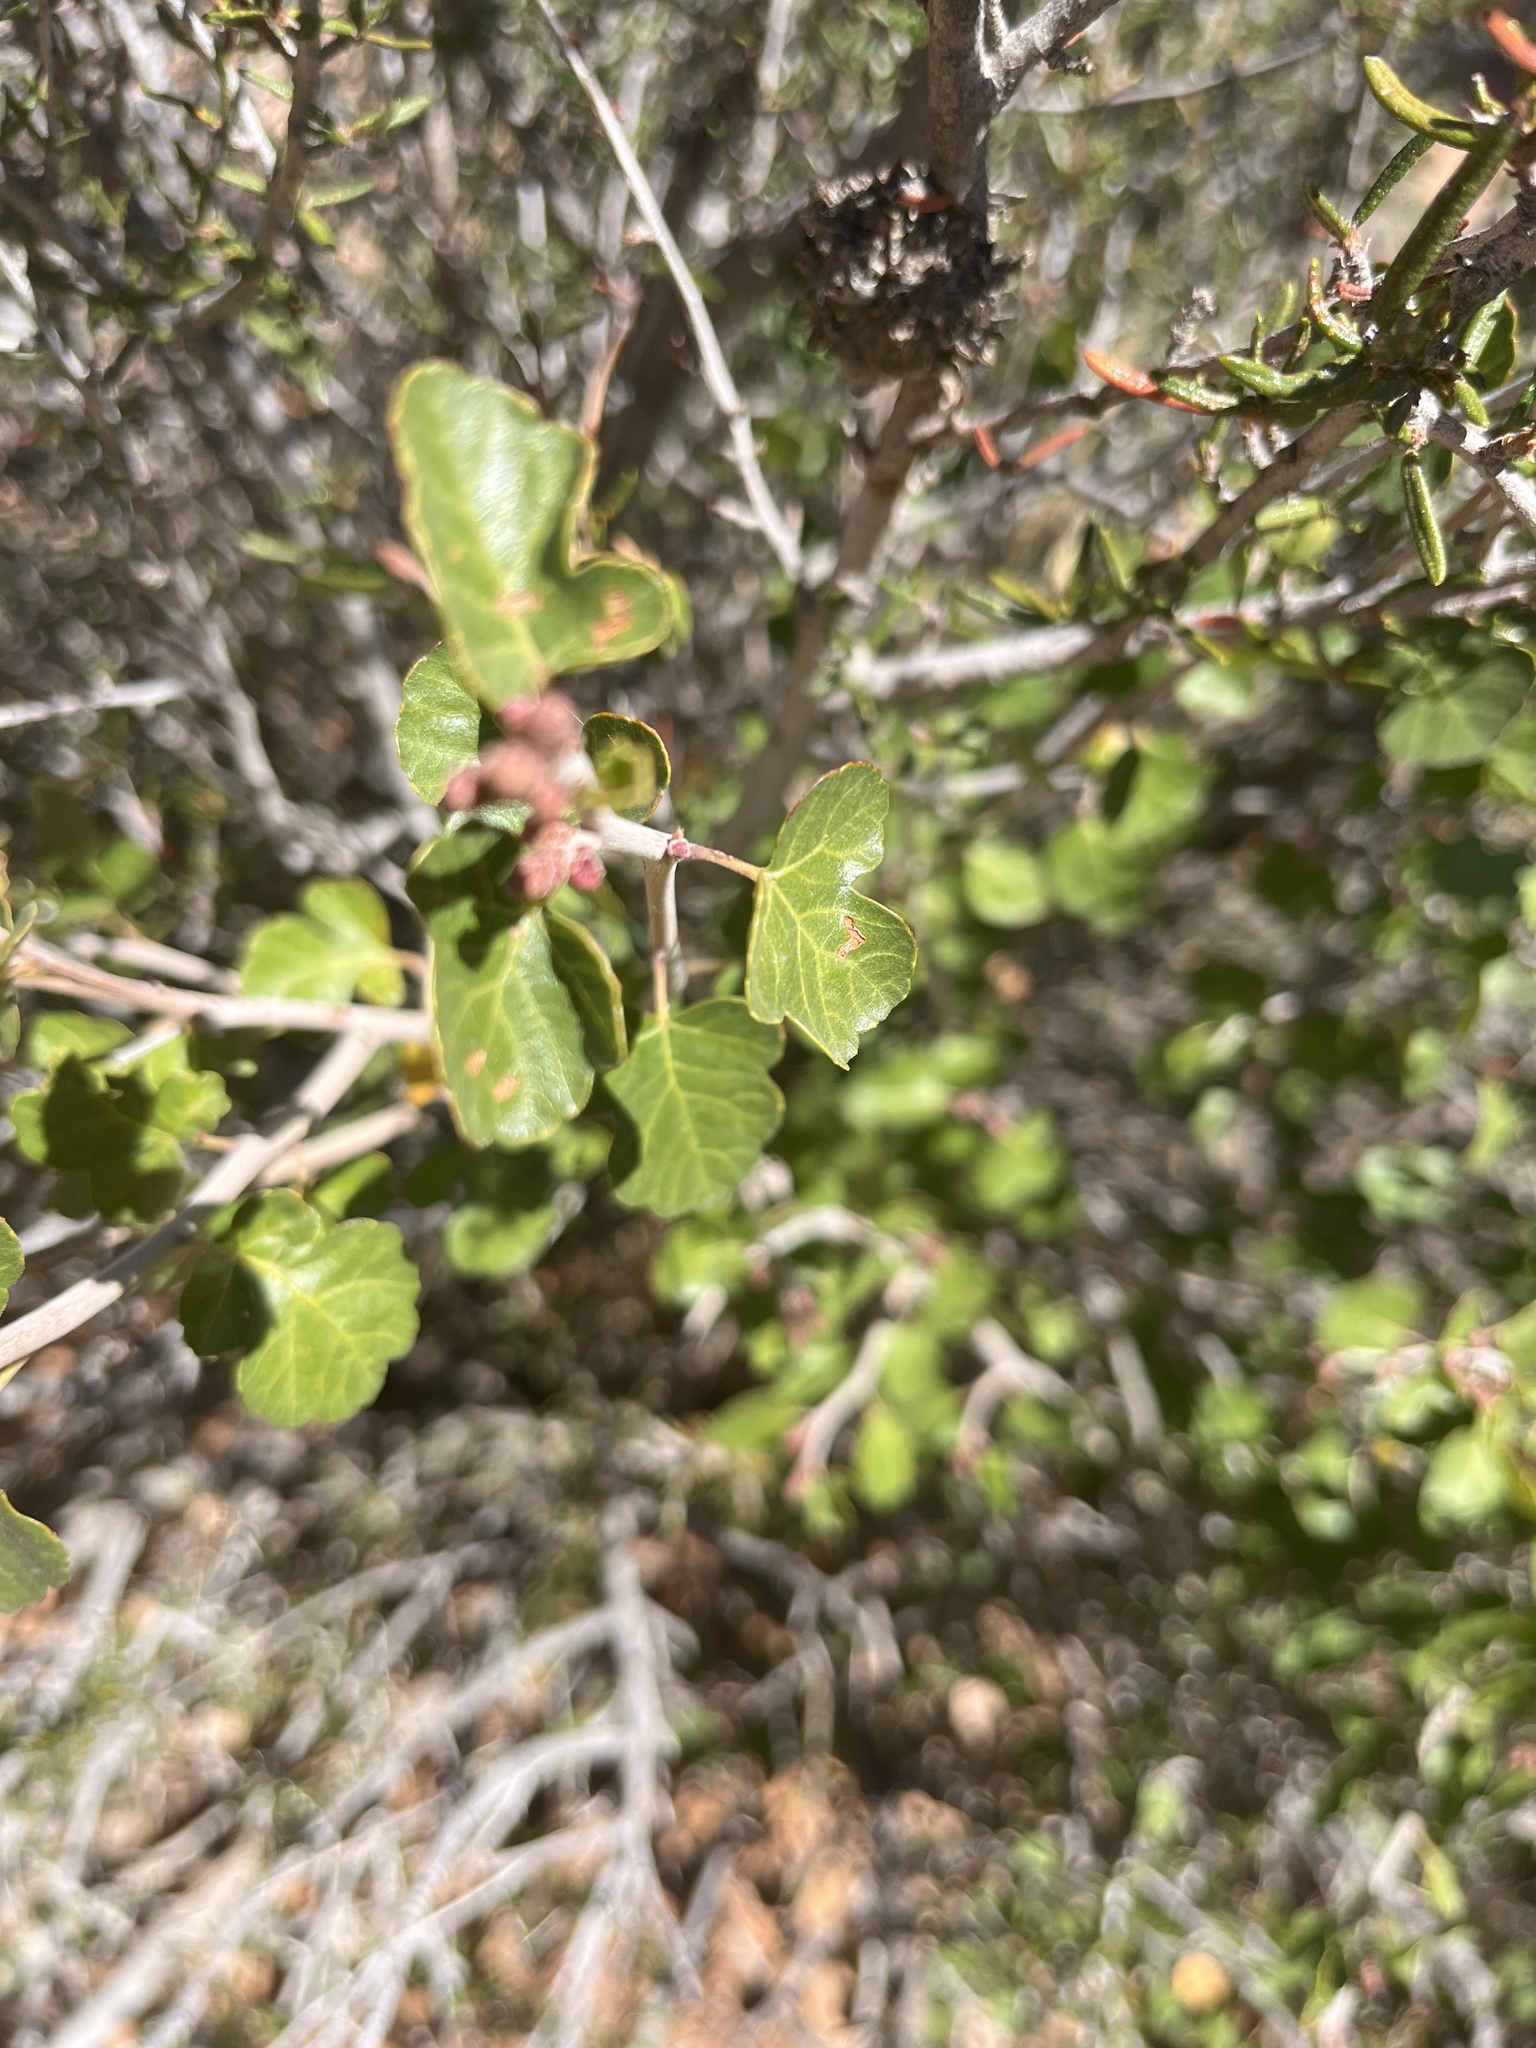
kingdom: Plantae
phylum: Tracheophyta
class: Magnoliopsida
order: Sapindales
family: Anacardiaceae
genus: Rhus
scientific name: Rhus aromatica
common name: Aromatic sumac
